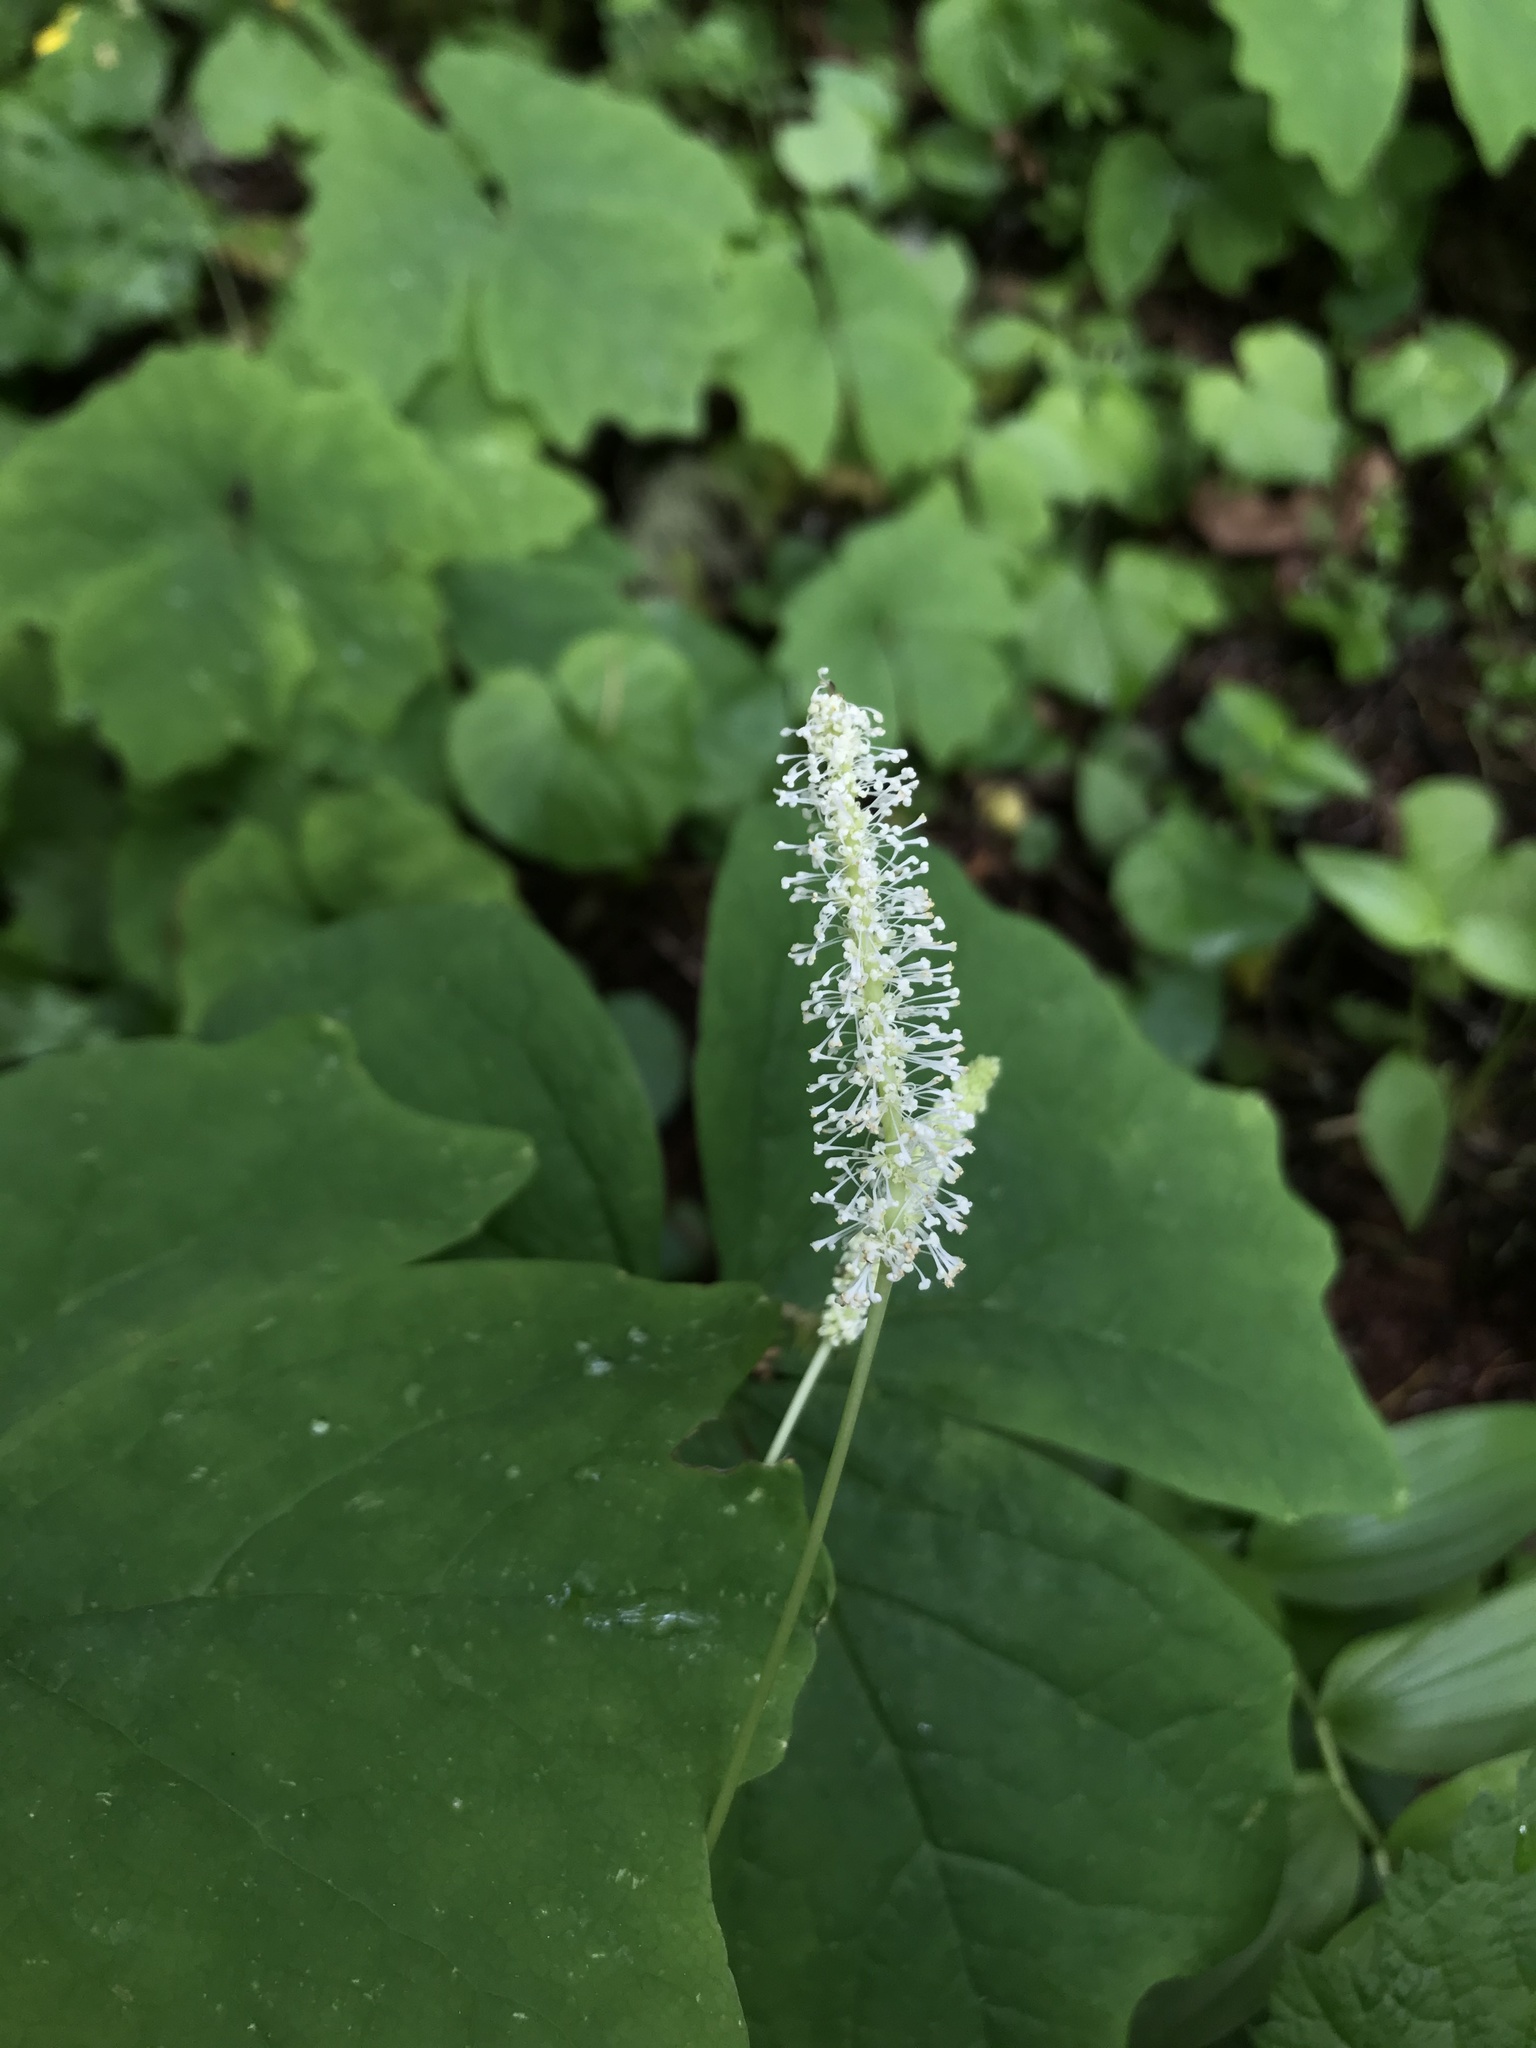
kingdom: Plantae
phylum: Tracheophyta
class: Magnoliopsida
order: Ranunculales
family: Berberidaceae
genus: Achlys
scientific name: Achlys triphylla
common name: Vanilla-leaf
